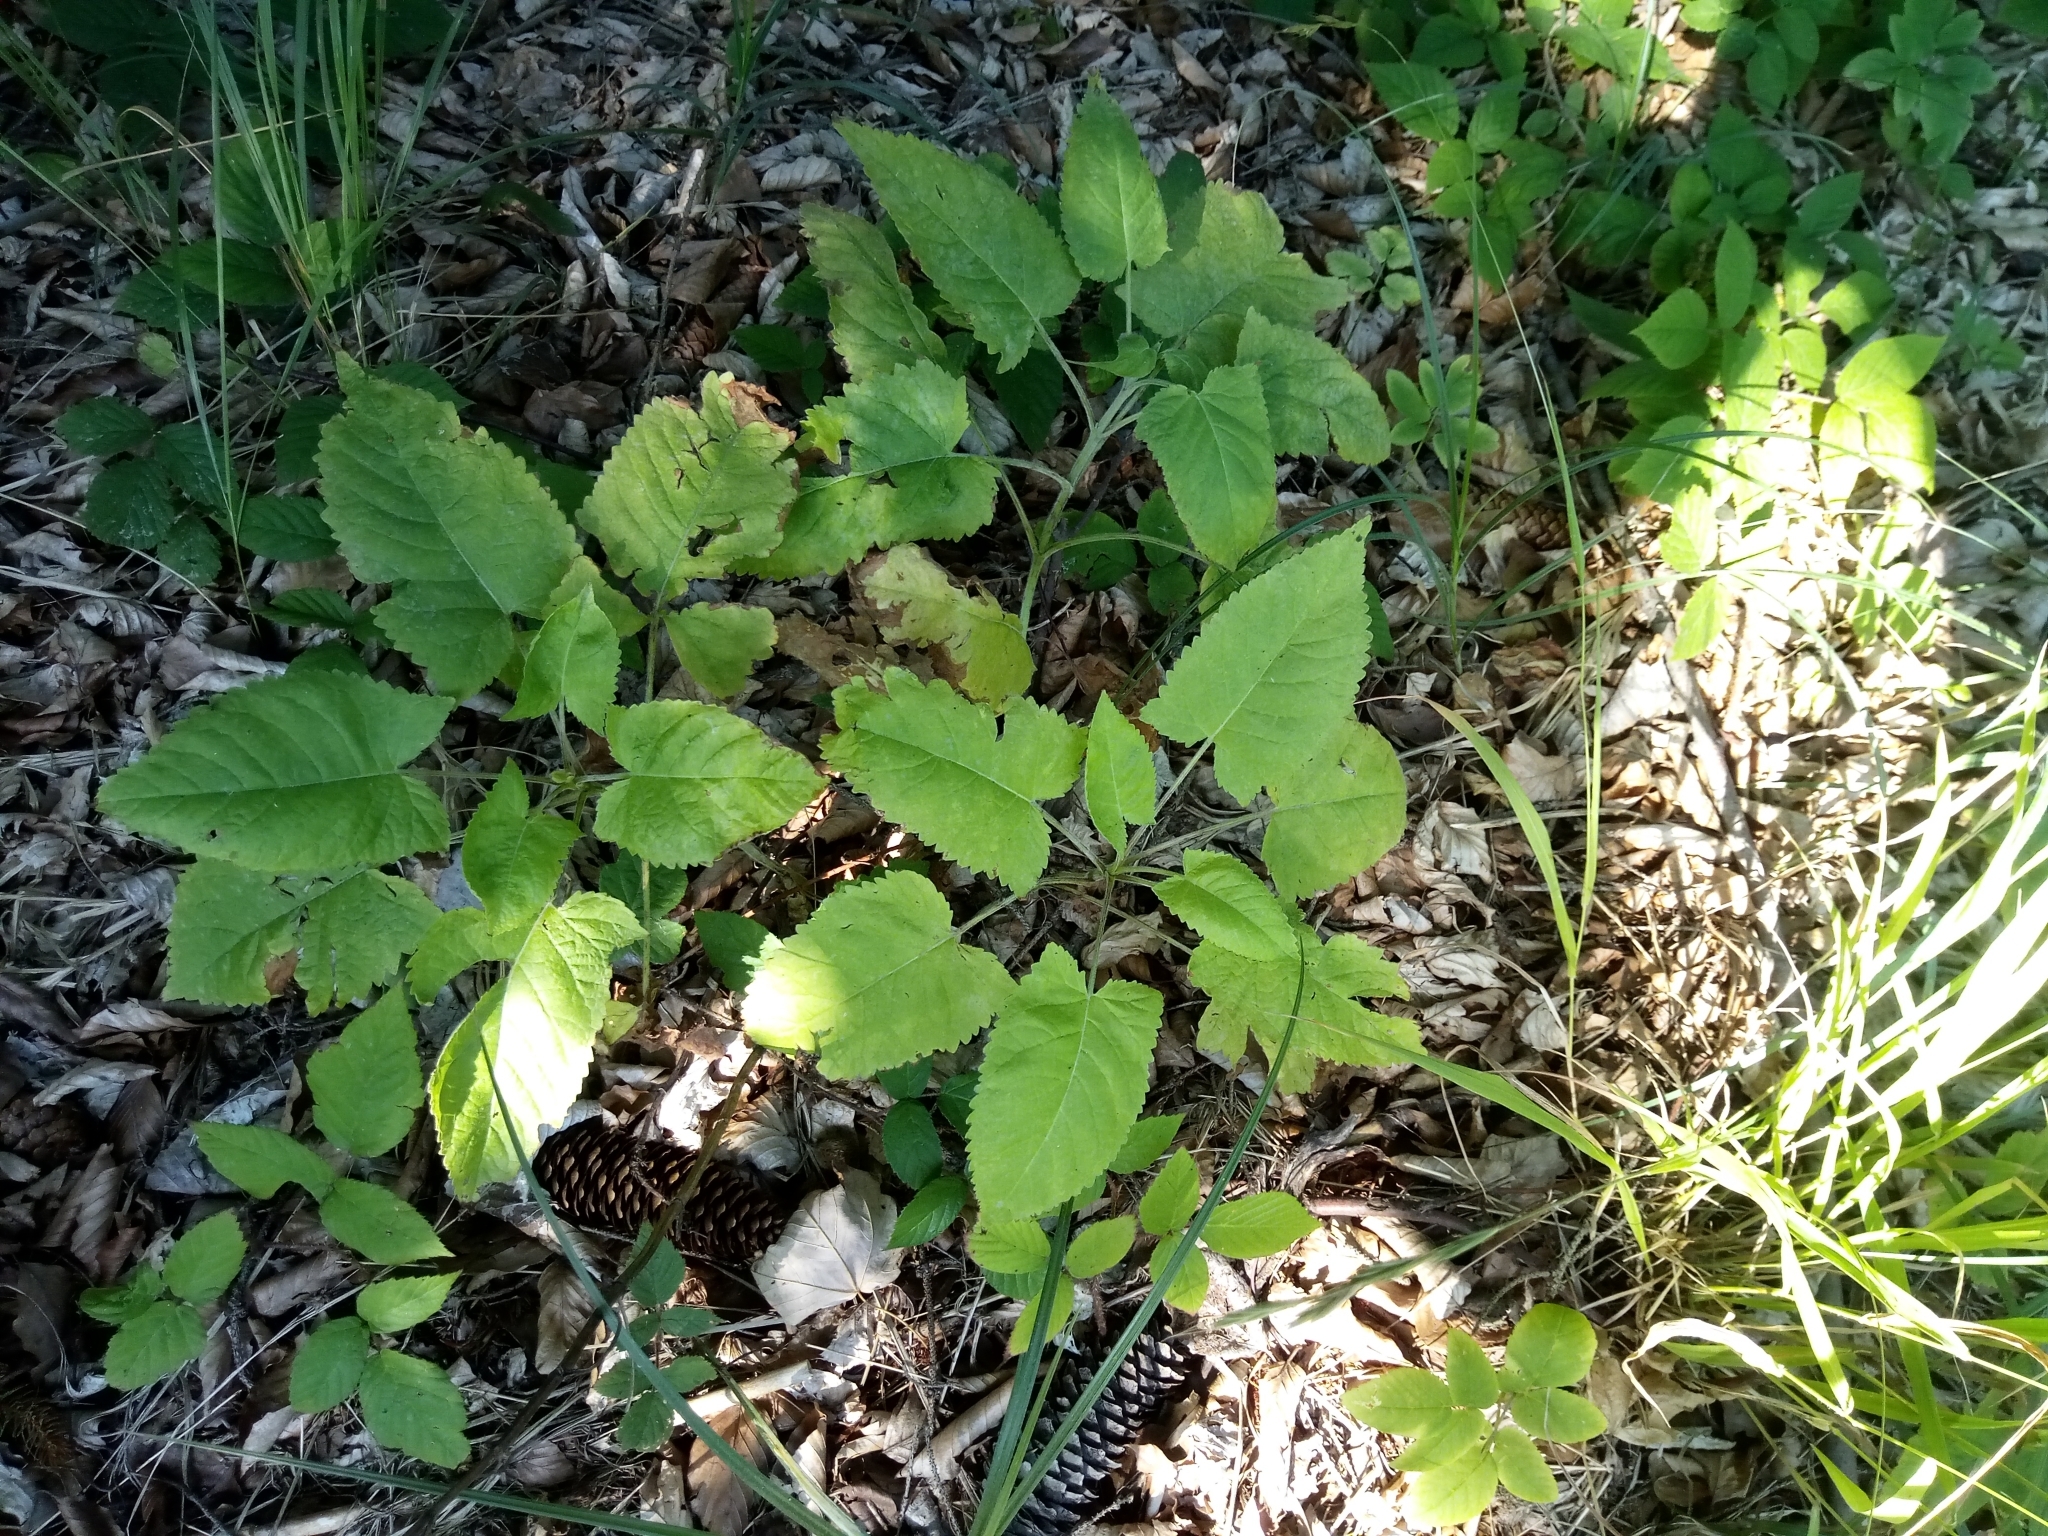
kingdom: Plantae
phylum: Tracheophyta
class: Magnoliopsida
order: Lamiales
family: Lamiaceae
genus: Salvia
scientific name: Salvia glutinosa
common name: Sticky clary
